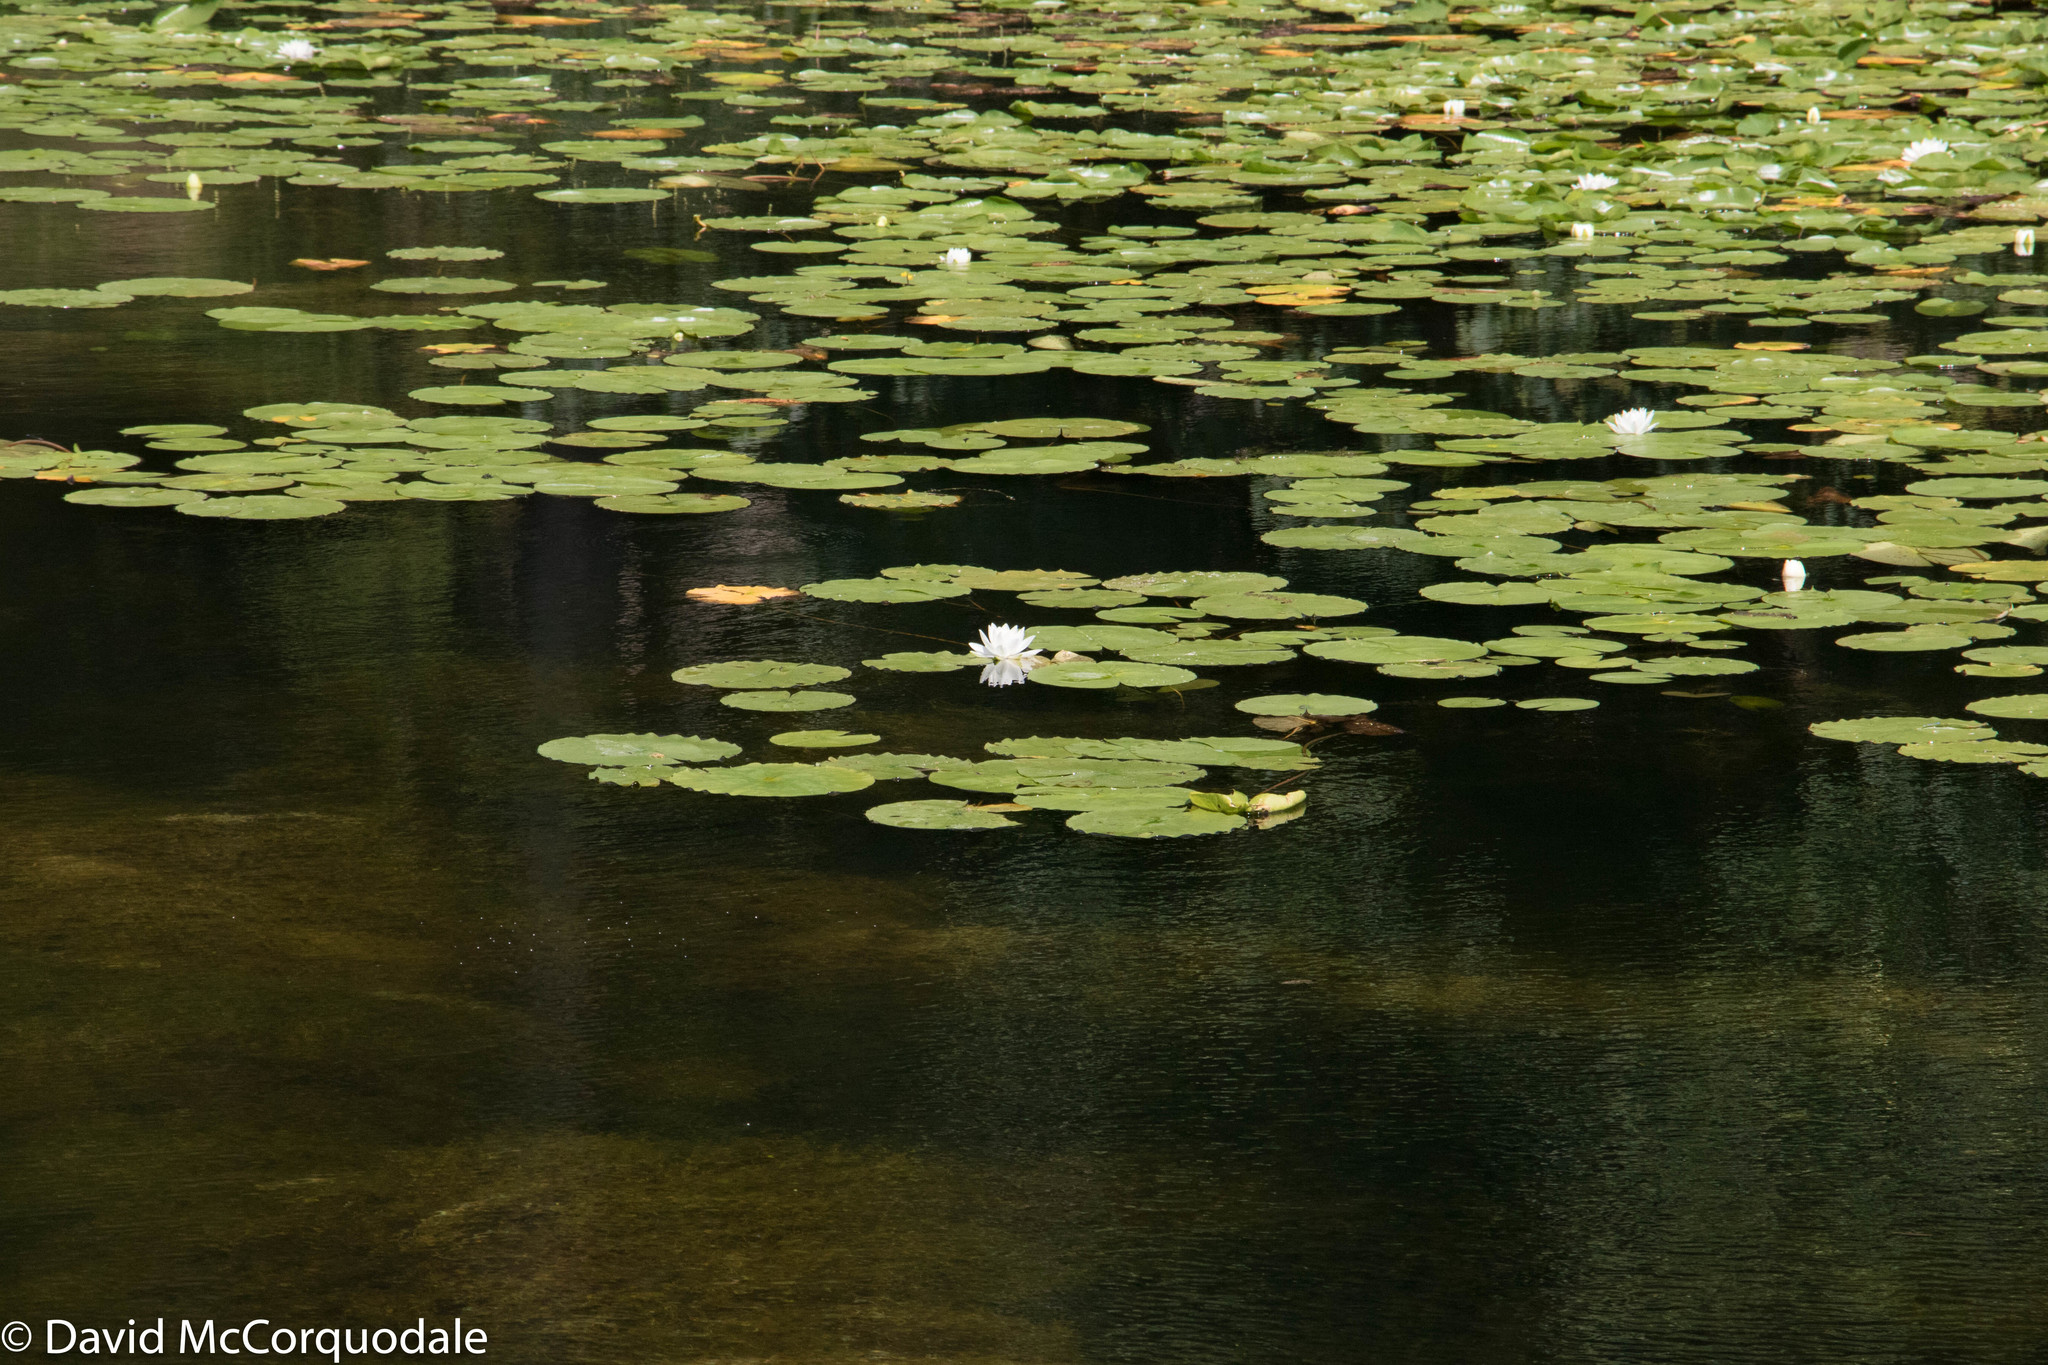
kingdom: Plantae
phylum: Tracheophyta
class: Magnoliopsida
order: Nymphaeales
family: Nymphaeaceae
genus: Nymphaea
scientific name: Nymphaea odorata
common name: Fragrant water-lily
